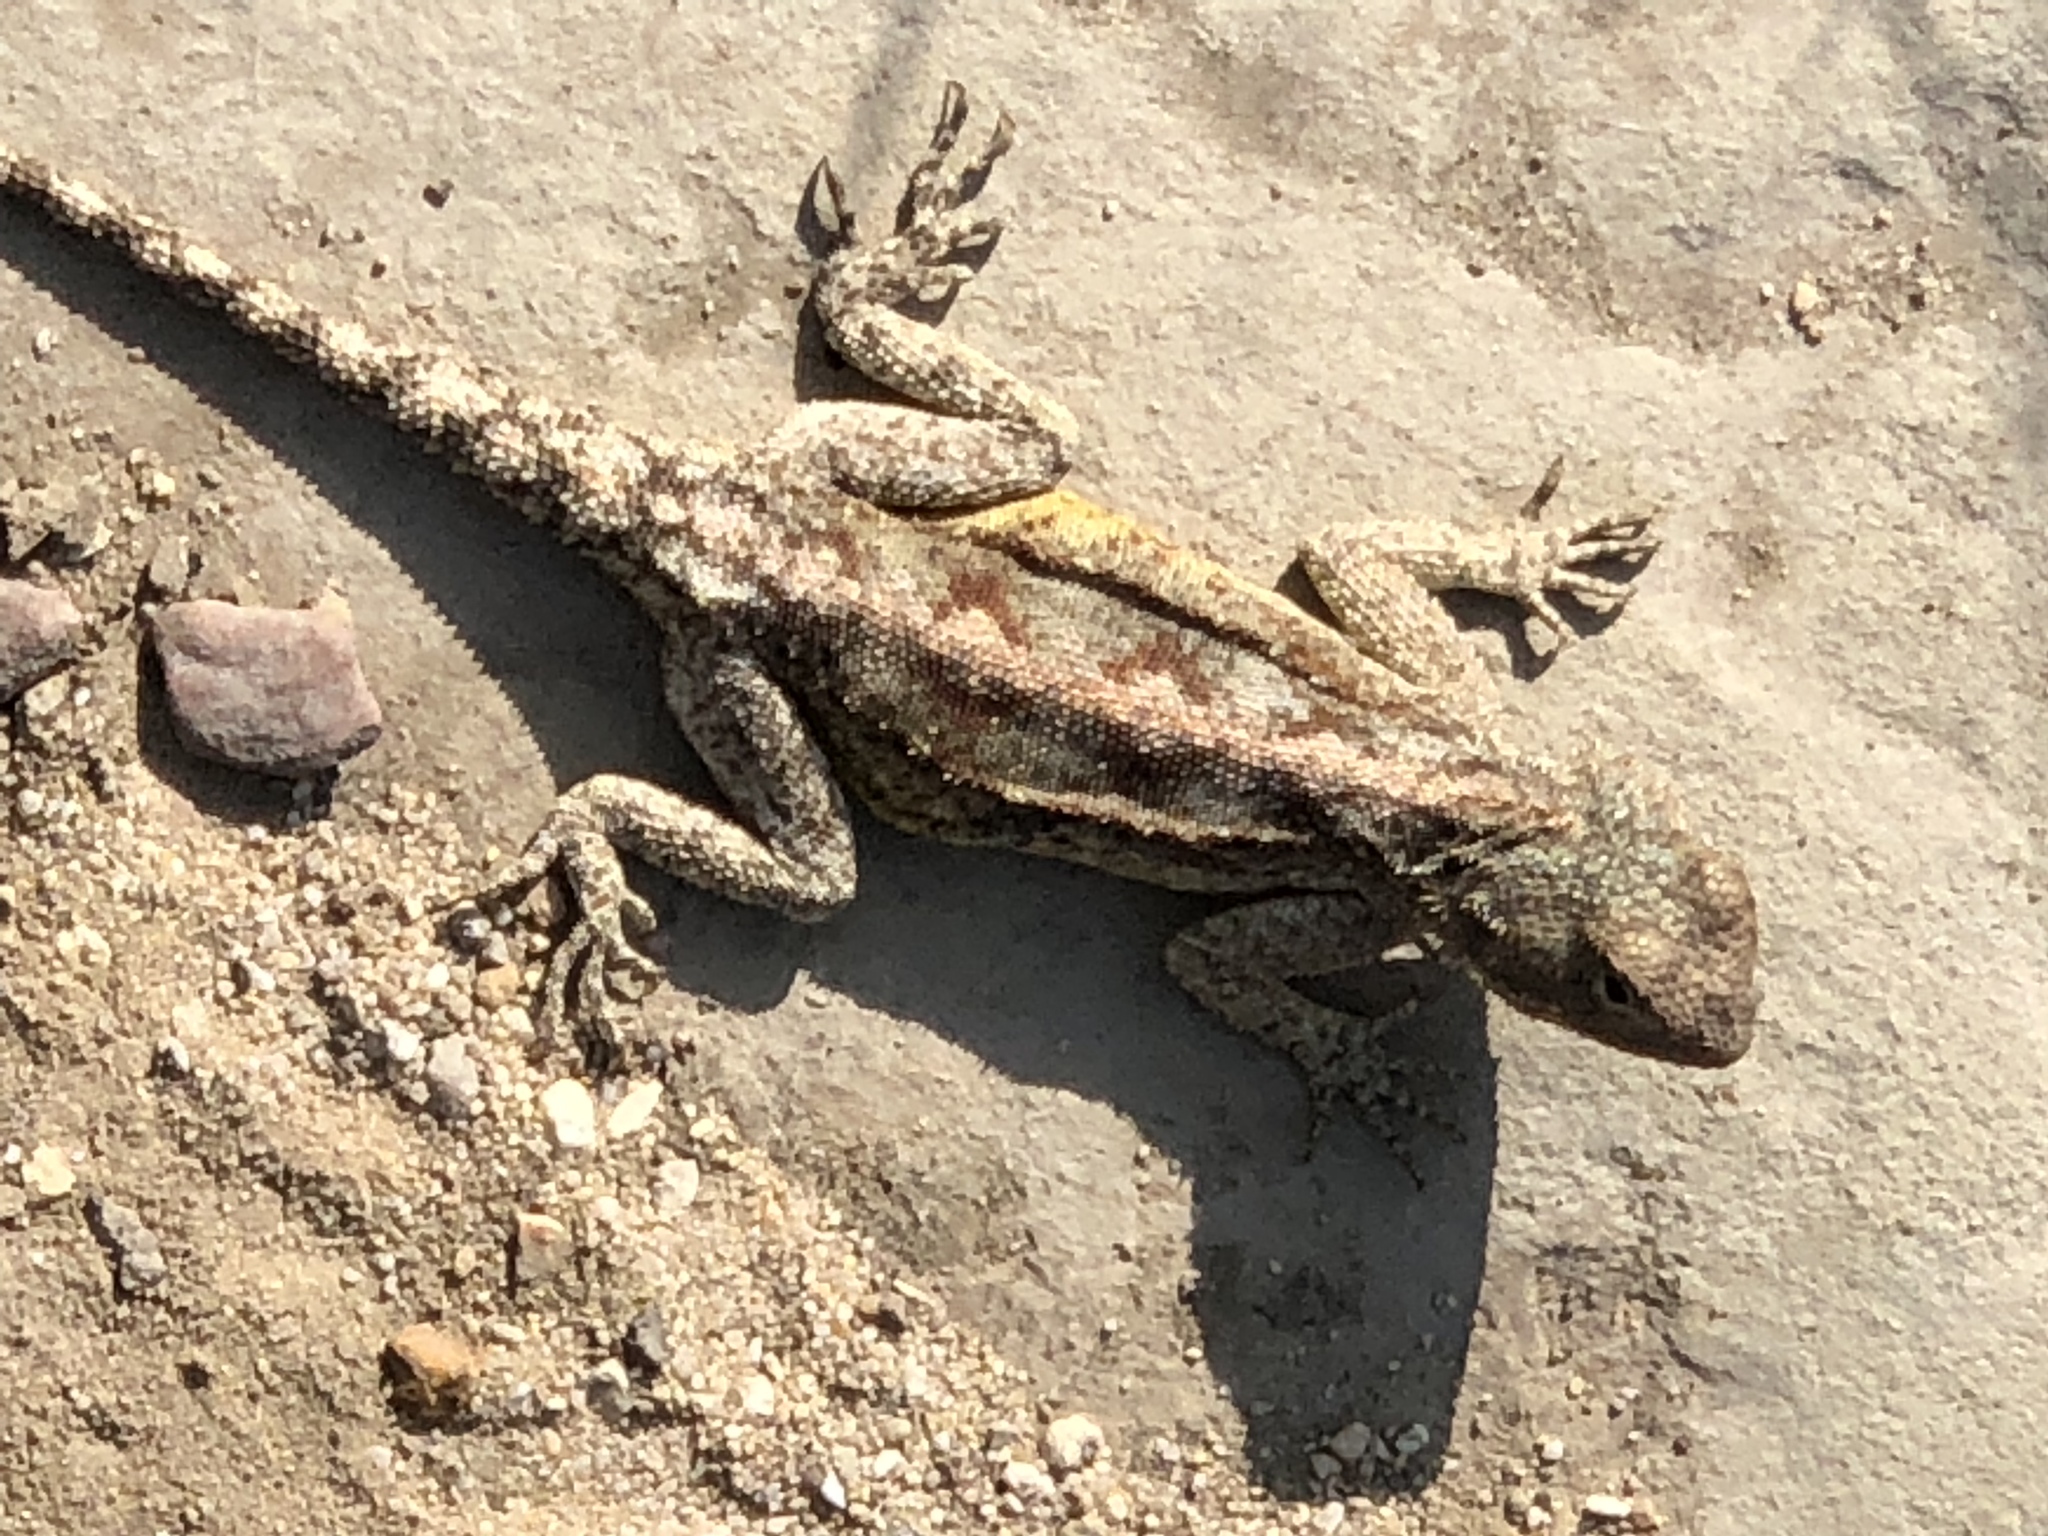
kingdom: Animalia
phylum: Chordata
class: Squamata
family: Agamidae
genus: Agama
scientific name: Agama atra
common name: Southern african rock agama
